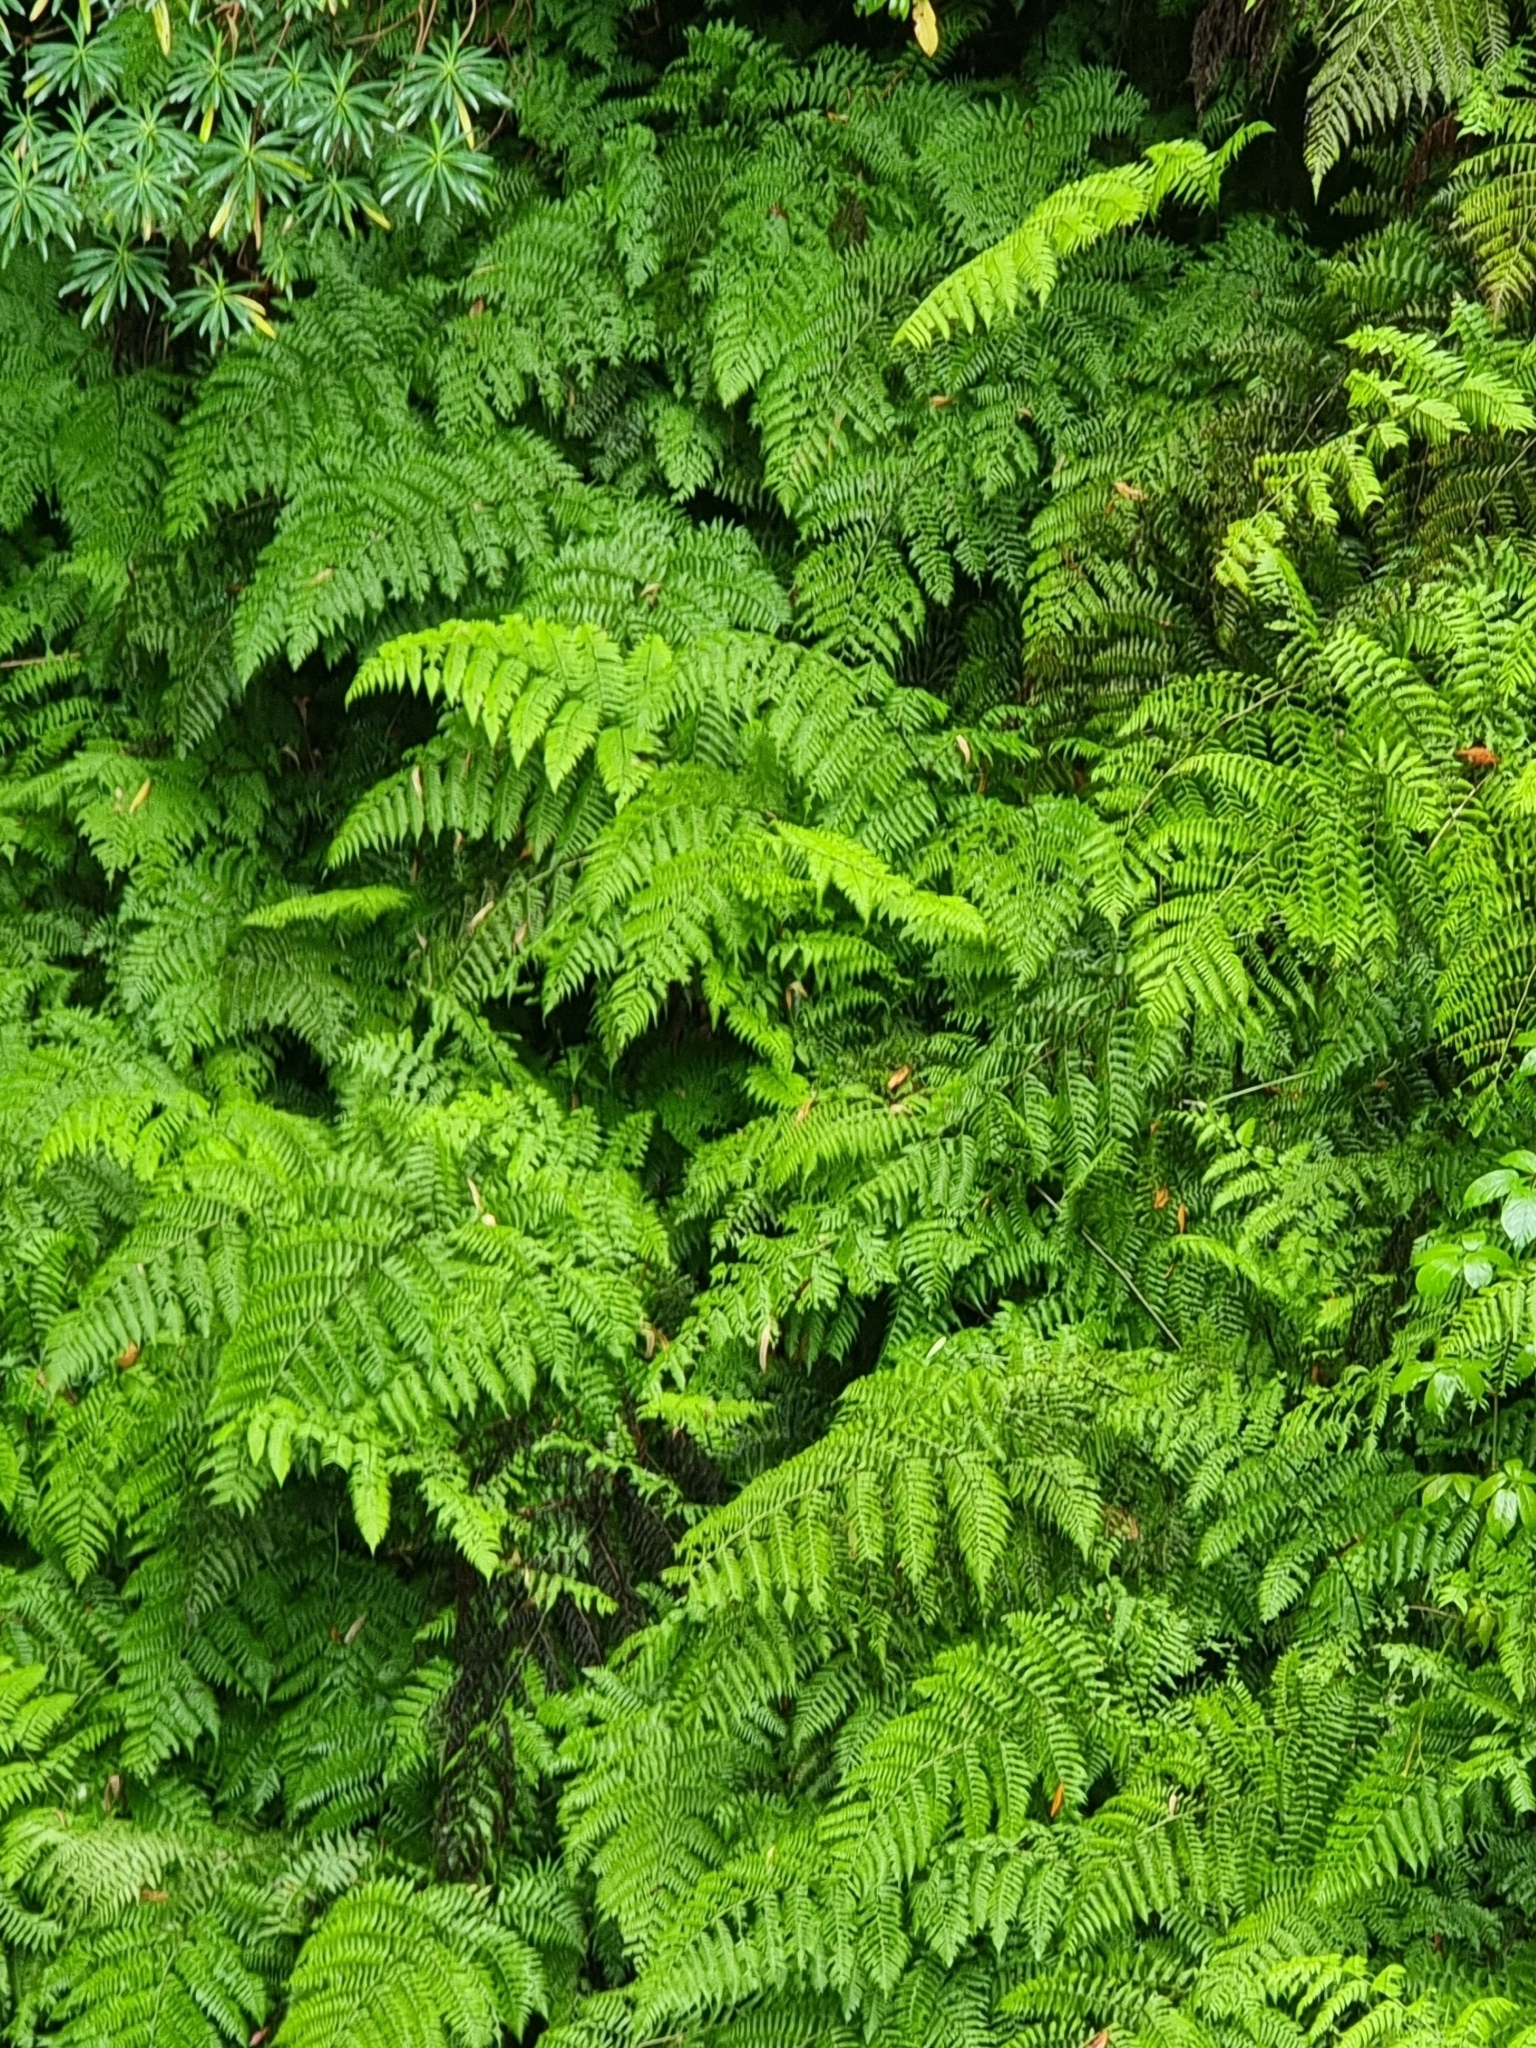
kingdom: Plantae
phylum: Tracheophyta
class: Polypodiopsida
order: Polypodiales
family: Athyriaceae
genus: Diplazium
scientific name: Diplazium caudatum
